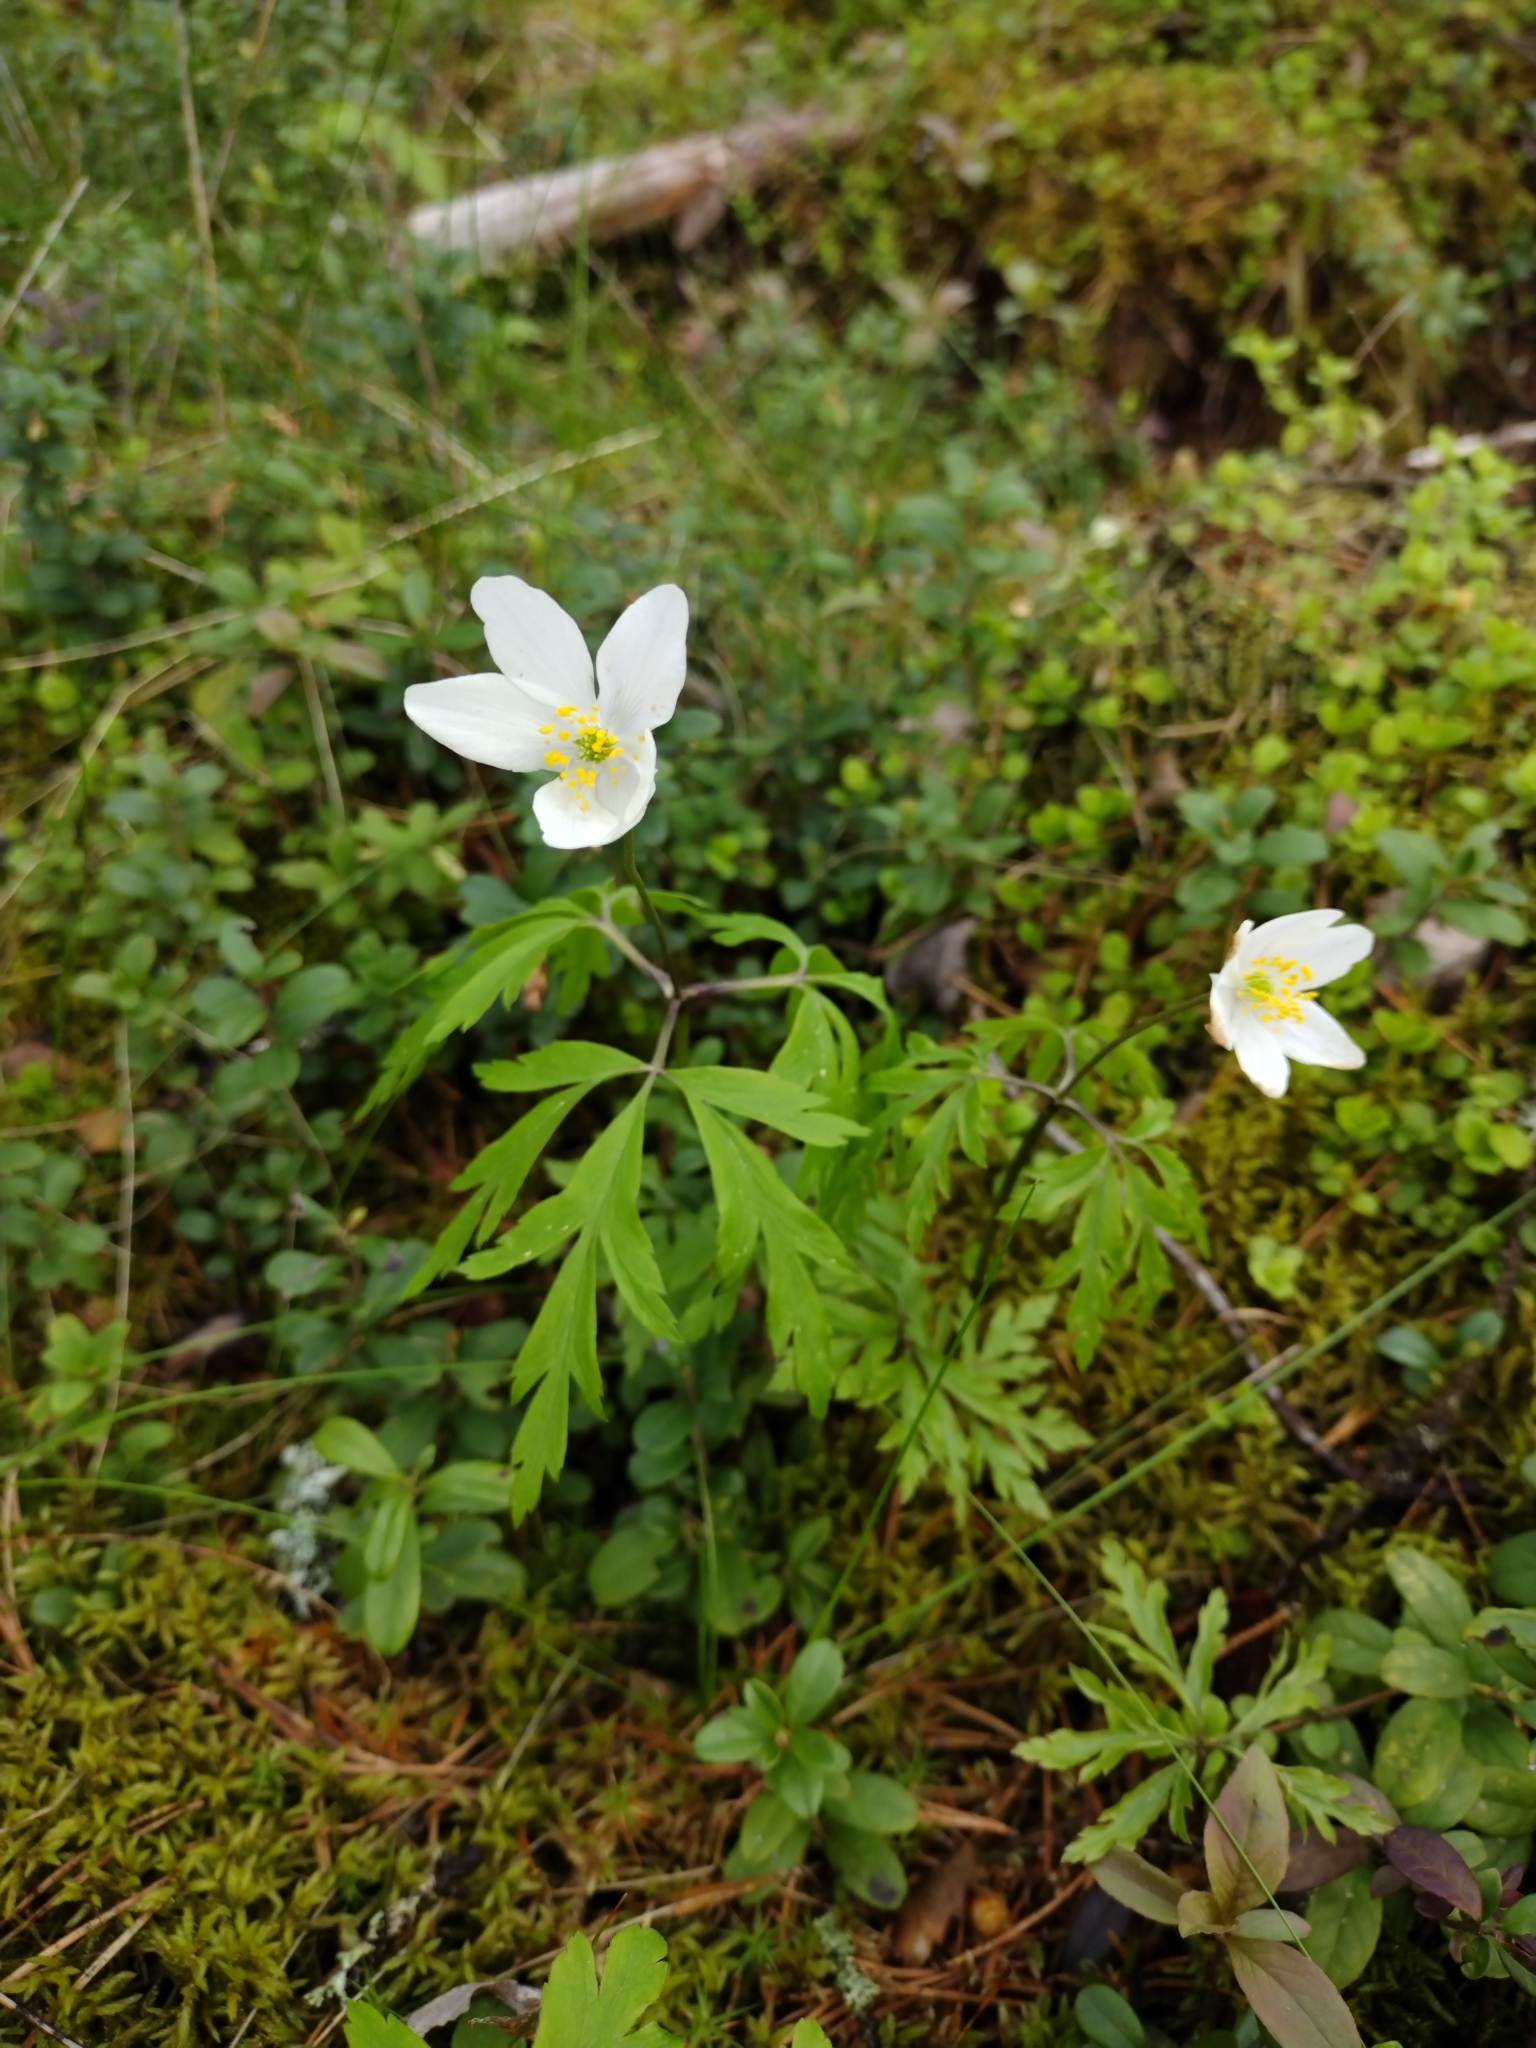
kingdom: Plantae
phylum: Tracheophyta
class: Magnoliopsida
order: Ranunculales
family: Ranunculaceae
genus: Anemone
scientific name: Anemone nemorosa
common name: Wood anemone
